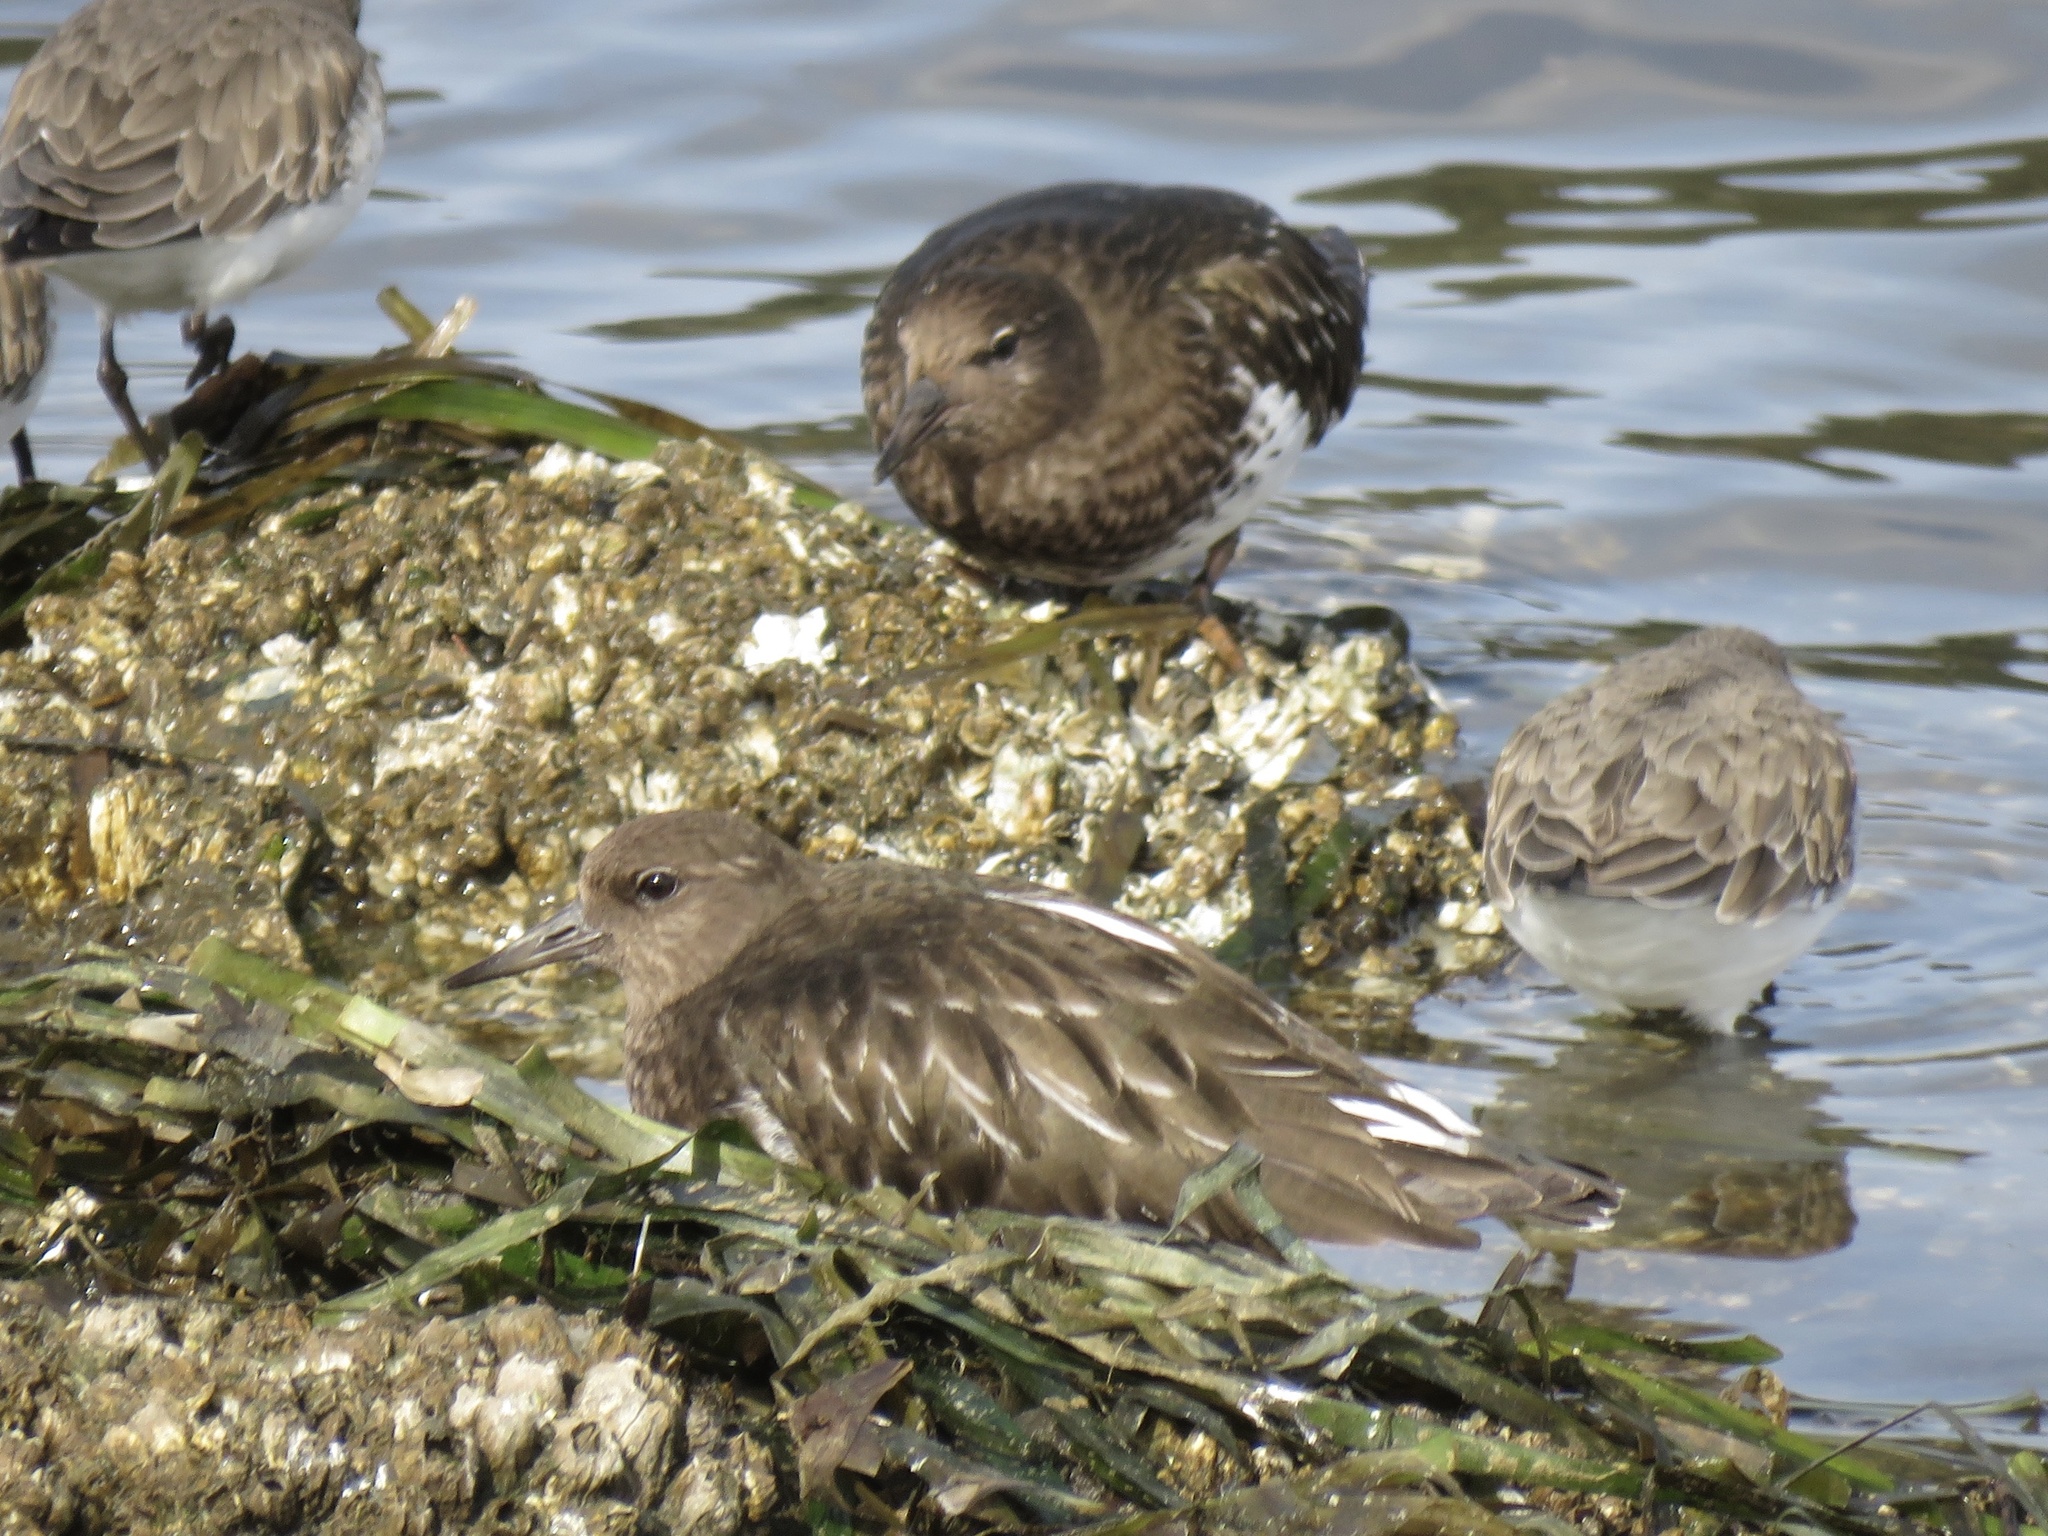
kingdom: Animalia
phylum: Chordata
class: Aves
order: Charadriiformes
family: Scolopacidae
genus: Arenaria
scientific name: Arenaria melanocephala
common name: Black turnstone
